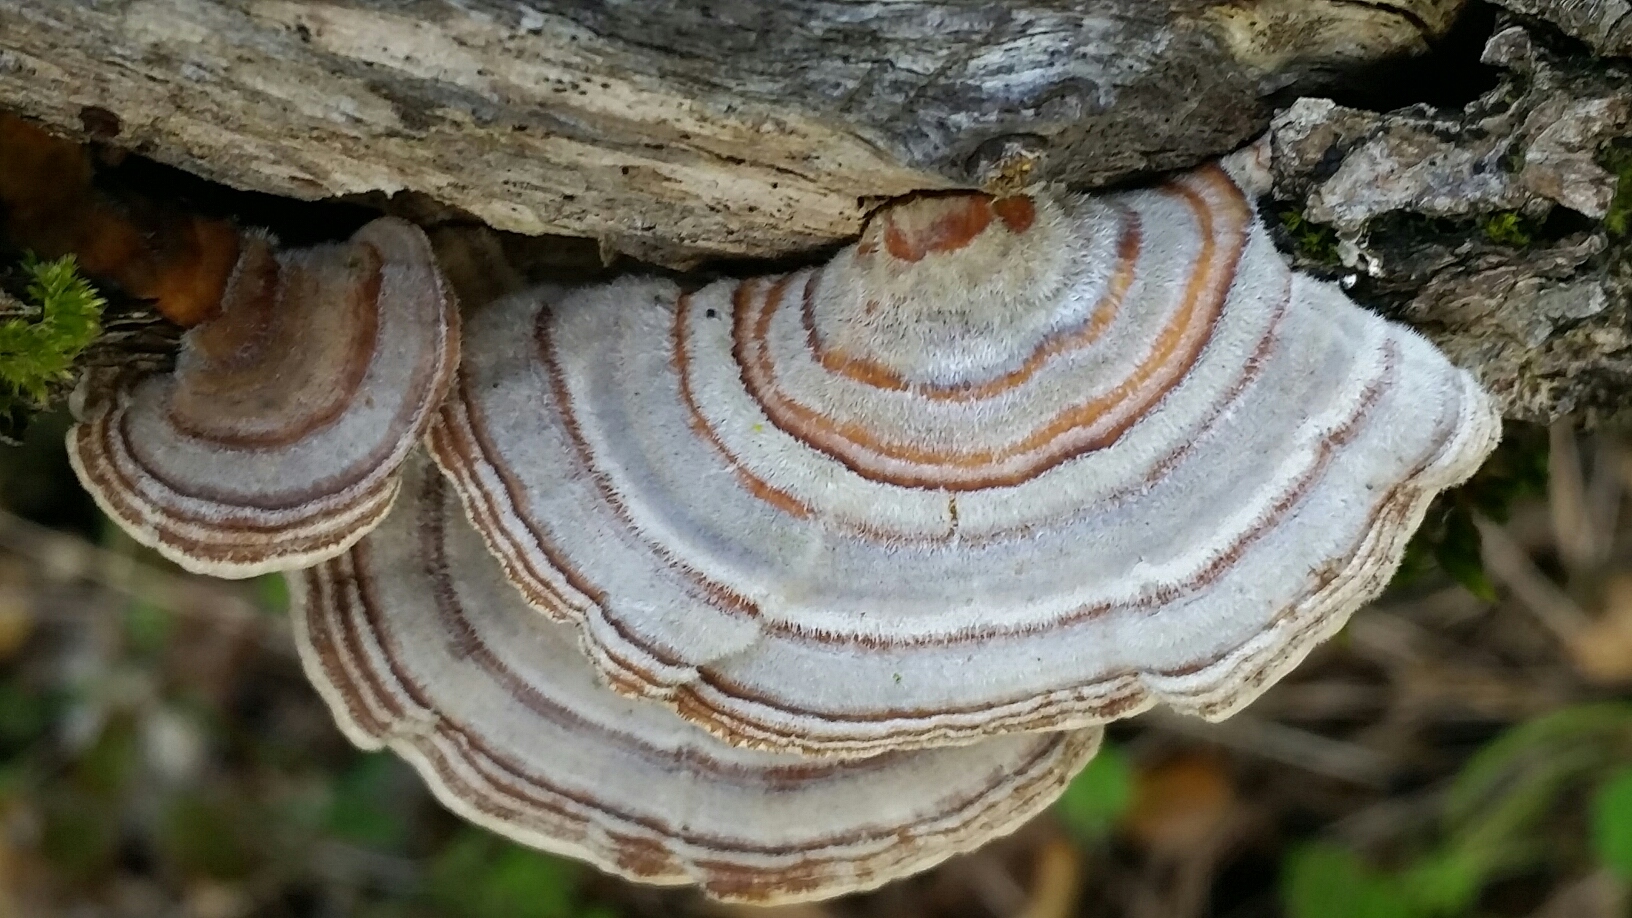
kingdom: Fungi
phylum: Basidiomycota
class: Agaricomycetes
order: Russulales
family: Stereaceae
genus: Stereum
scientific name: Stereum hirsutum
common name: Hairy curtain crust
